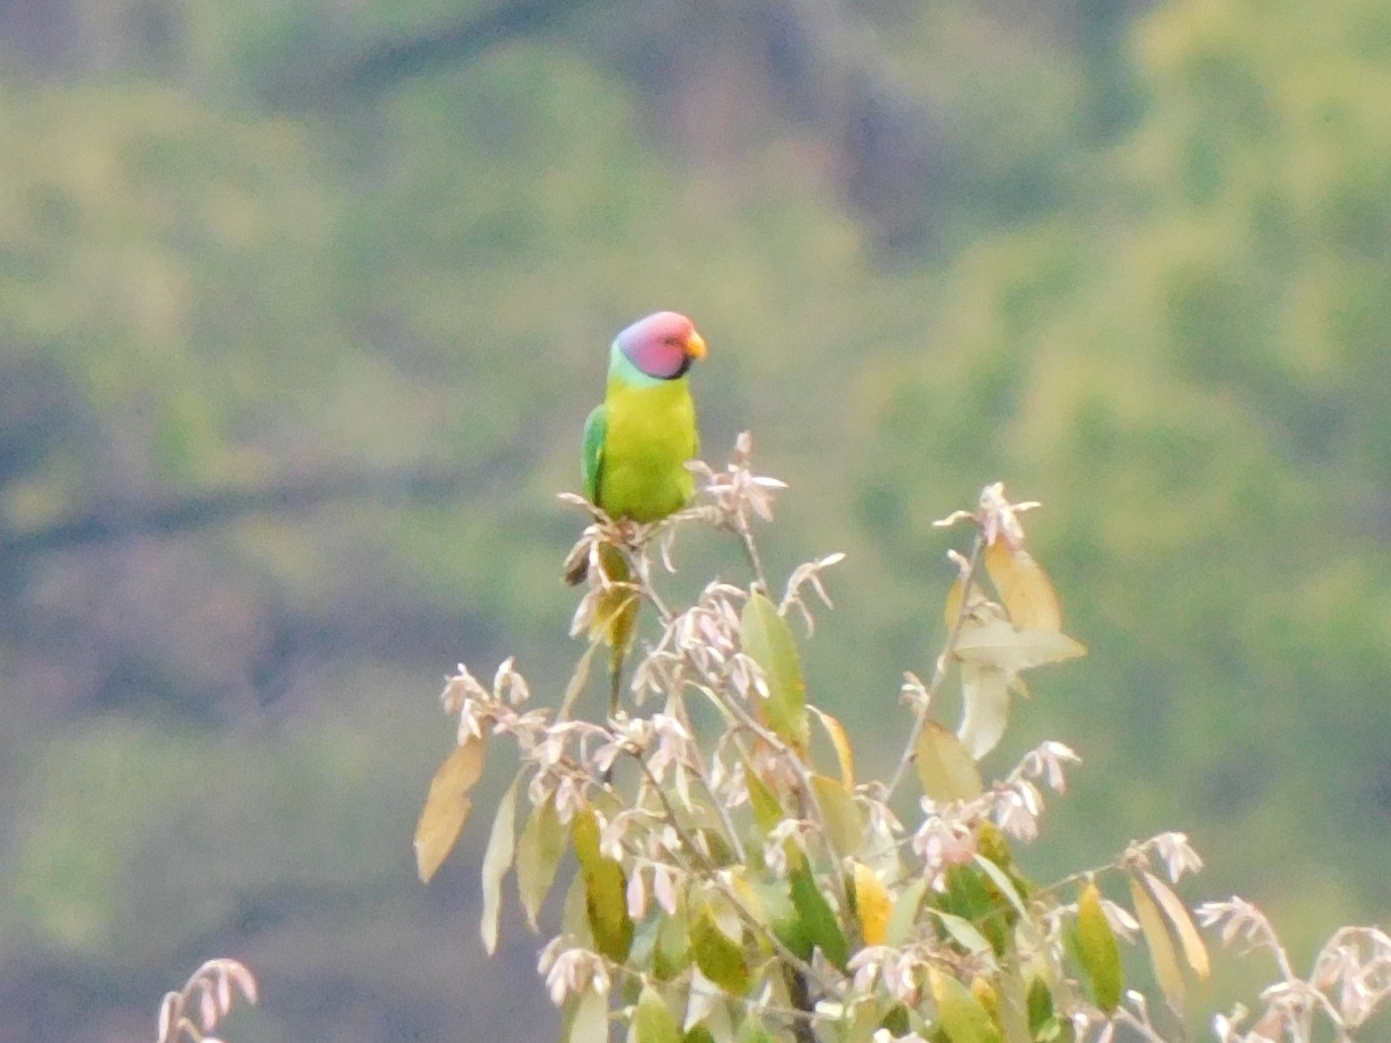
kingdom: Animalia
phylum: Chordata
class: Aves
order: Psittaciformes
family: Psittacidae
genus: Psittacula
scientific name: Psittacula cyanocephala
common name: Plum-headed parakeet
